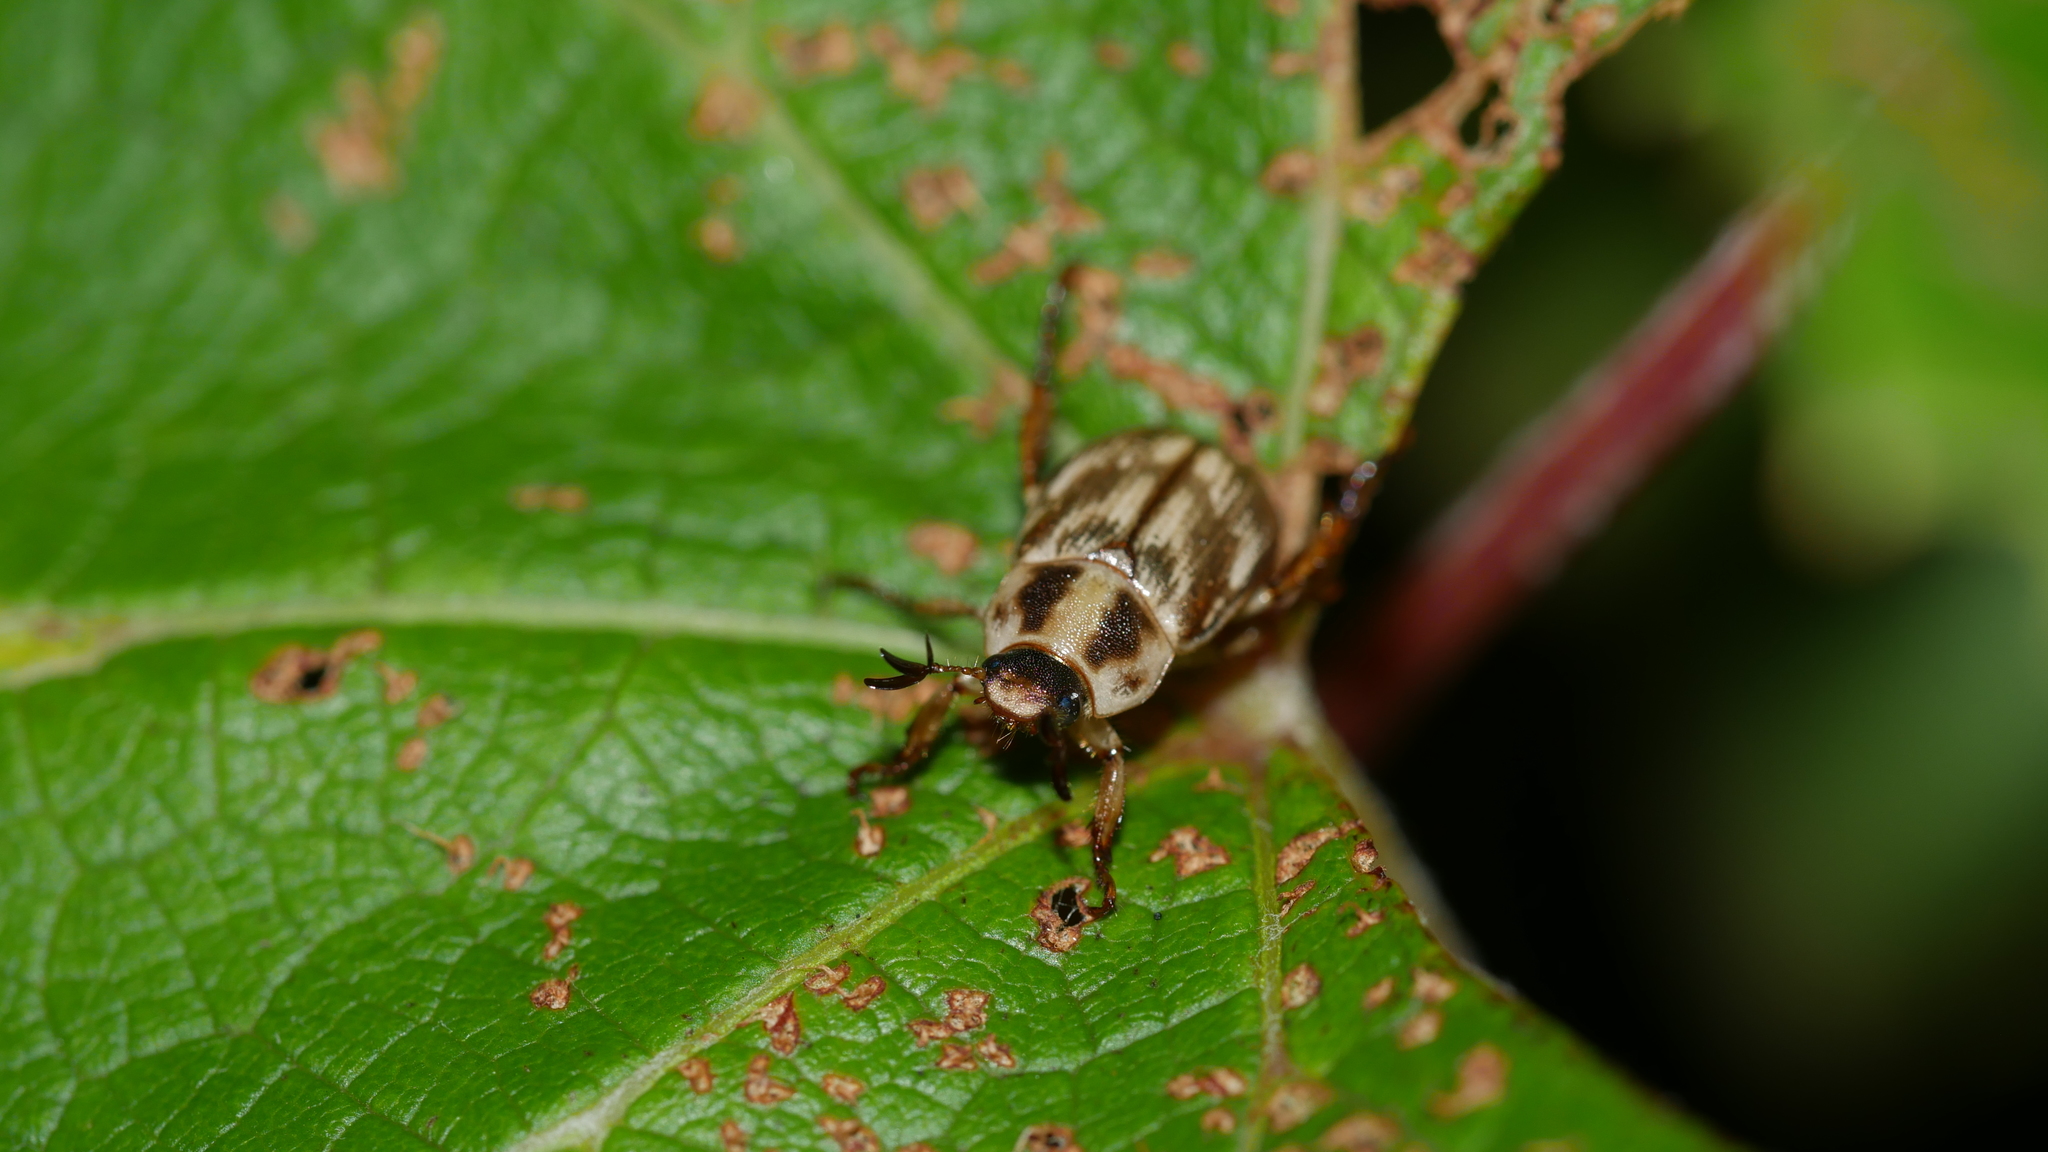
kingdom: Animalia
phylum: Arthropoda
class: Insecta
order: Coleoptera
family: Scarabaeidae
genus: Exomala
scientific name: Exomala orientalis
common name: Oriental beetle
